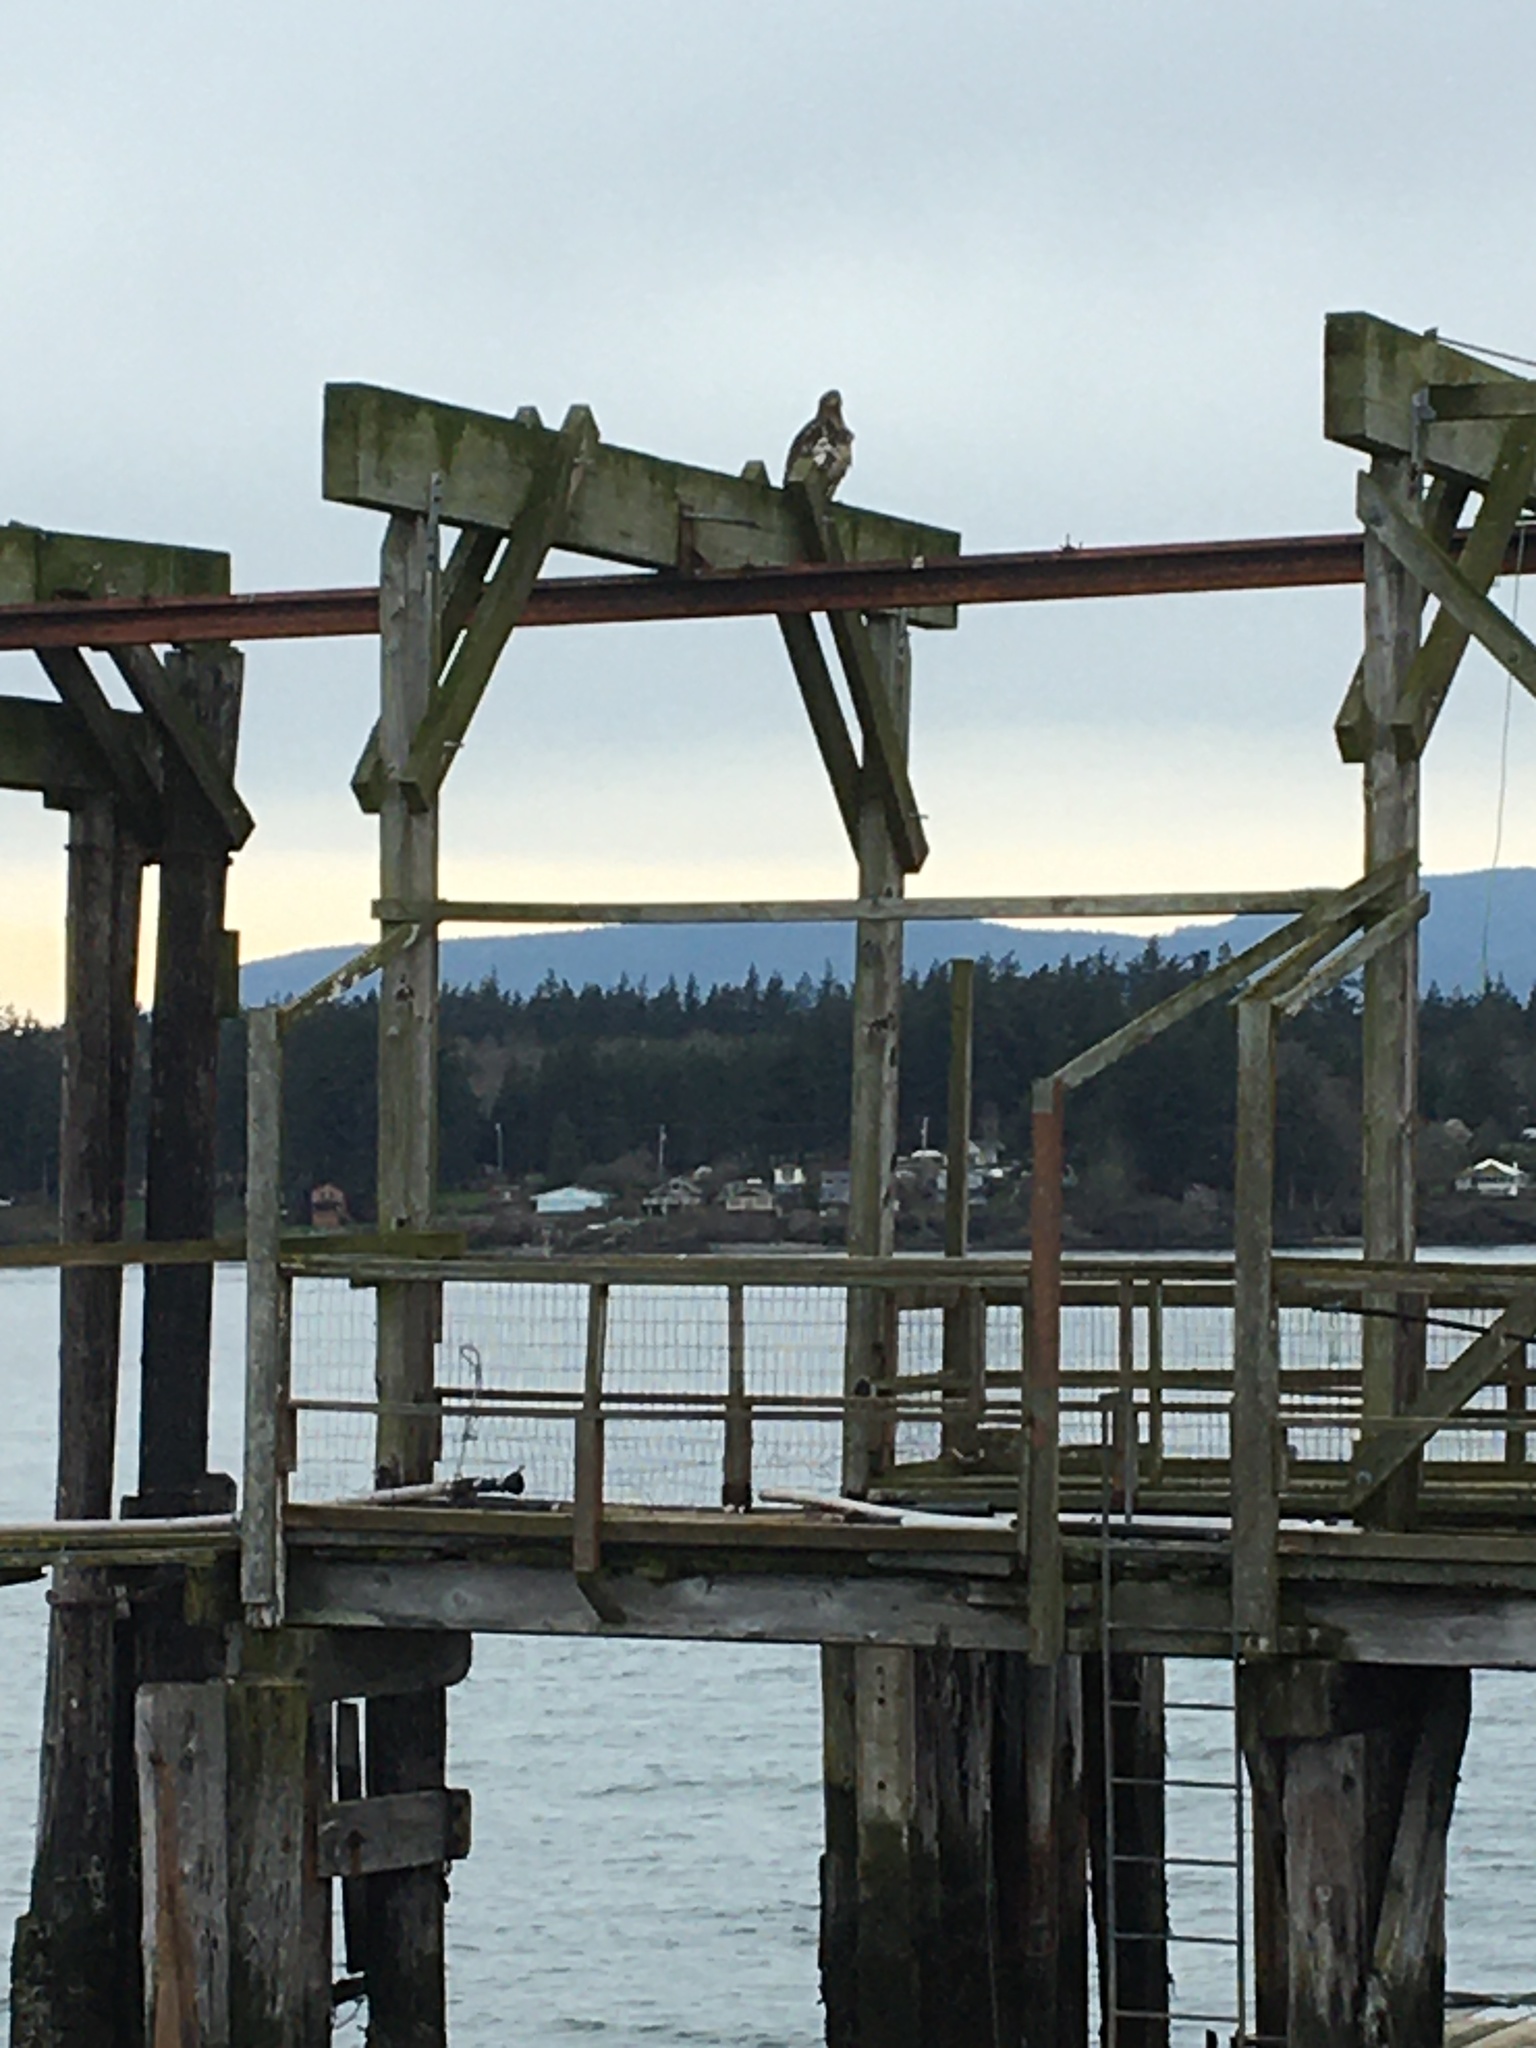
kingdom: Animalia
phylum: Chordata
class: Aves
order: Accipitriformes
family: Accipitridae
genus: Haliaeetus
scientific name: Haliaeetus leucocephalus
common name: Bald eagle
